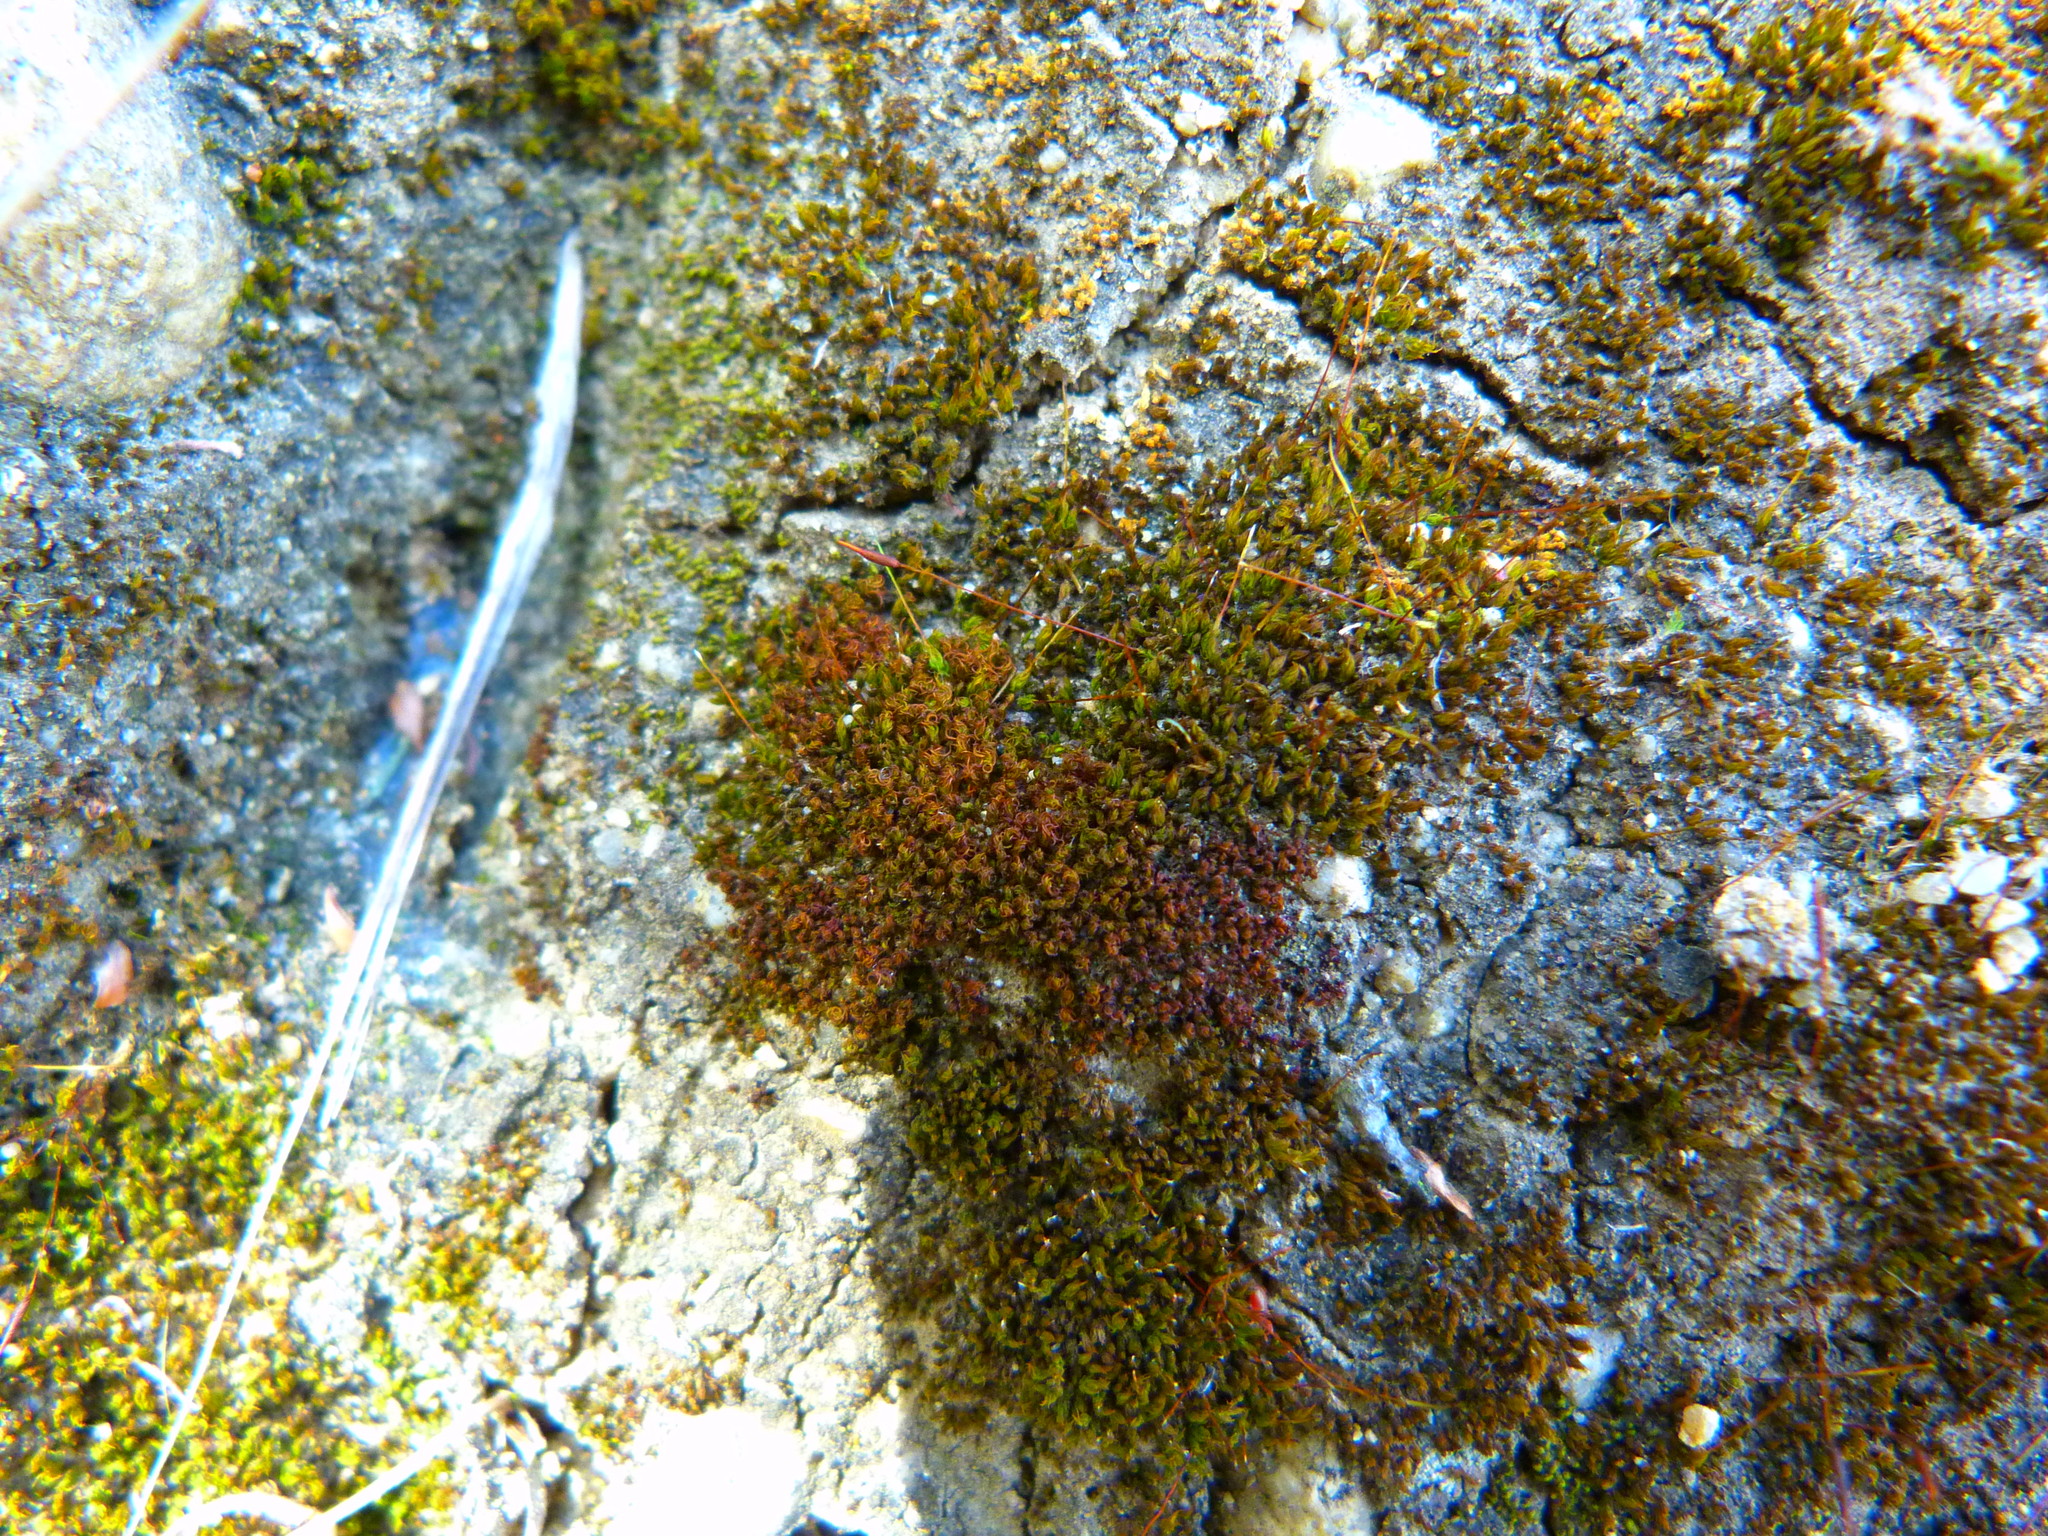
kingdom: Plantae
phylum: Bryophyta
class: Bryopsida
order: Pottiales
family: Pottiaceae
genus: Vinealobryum
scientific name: Vinealobryum vineale
